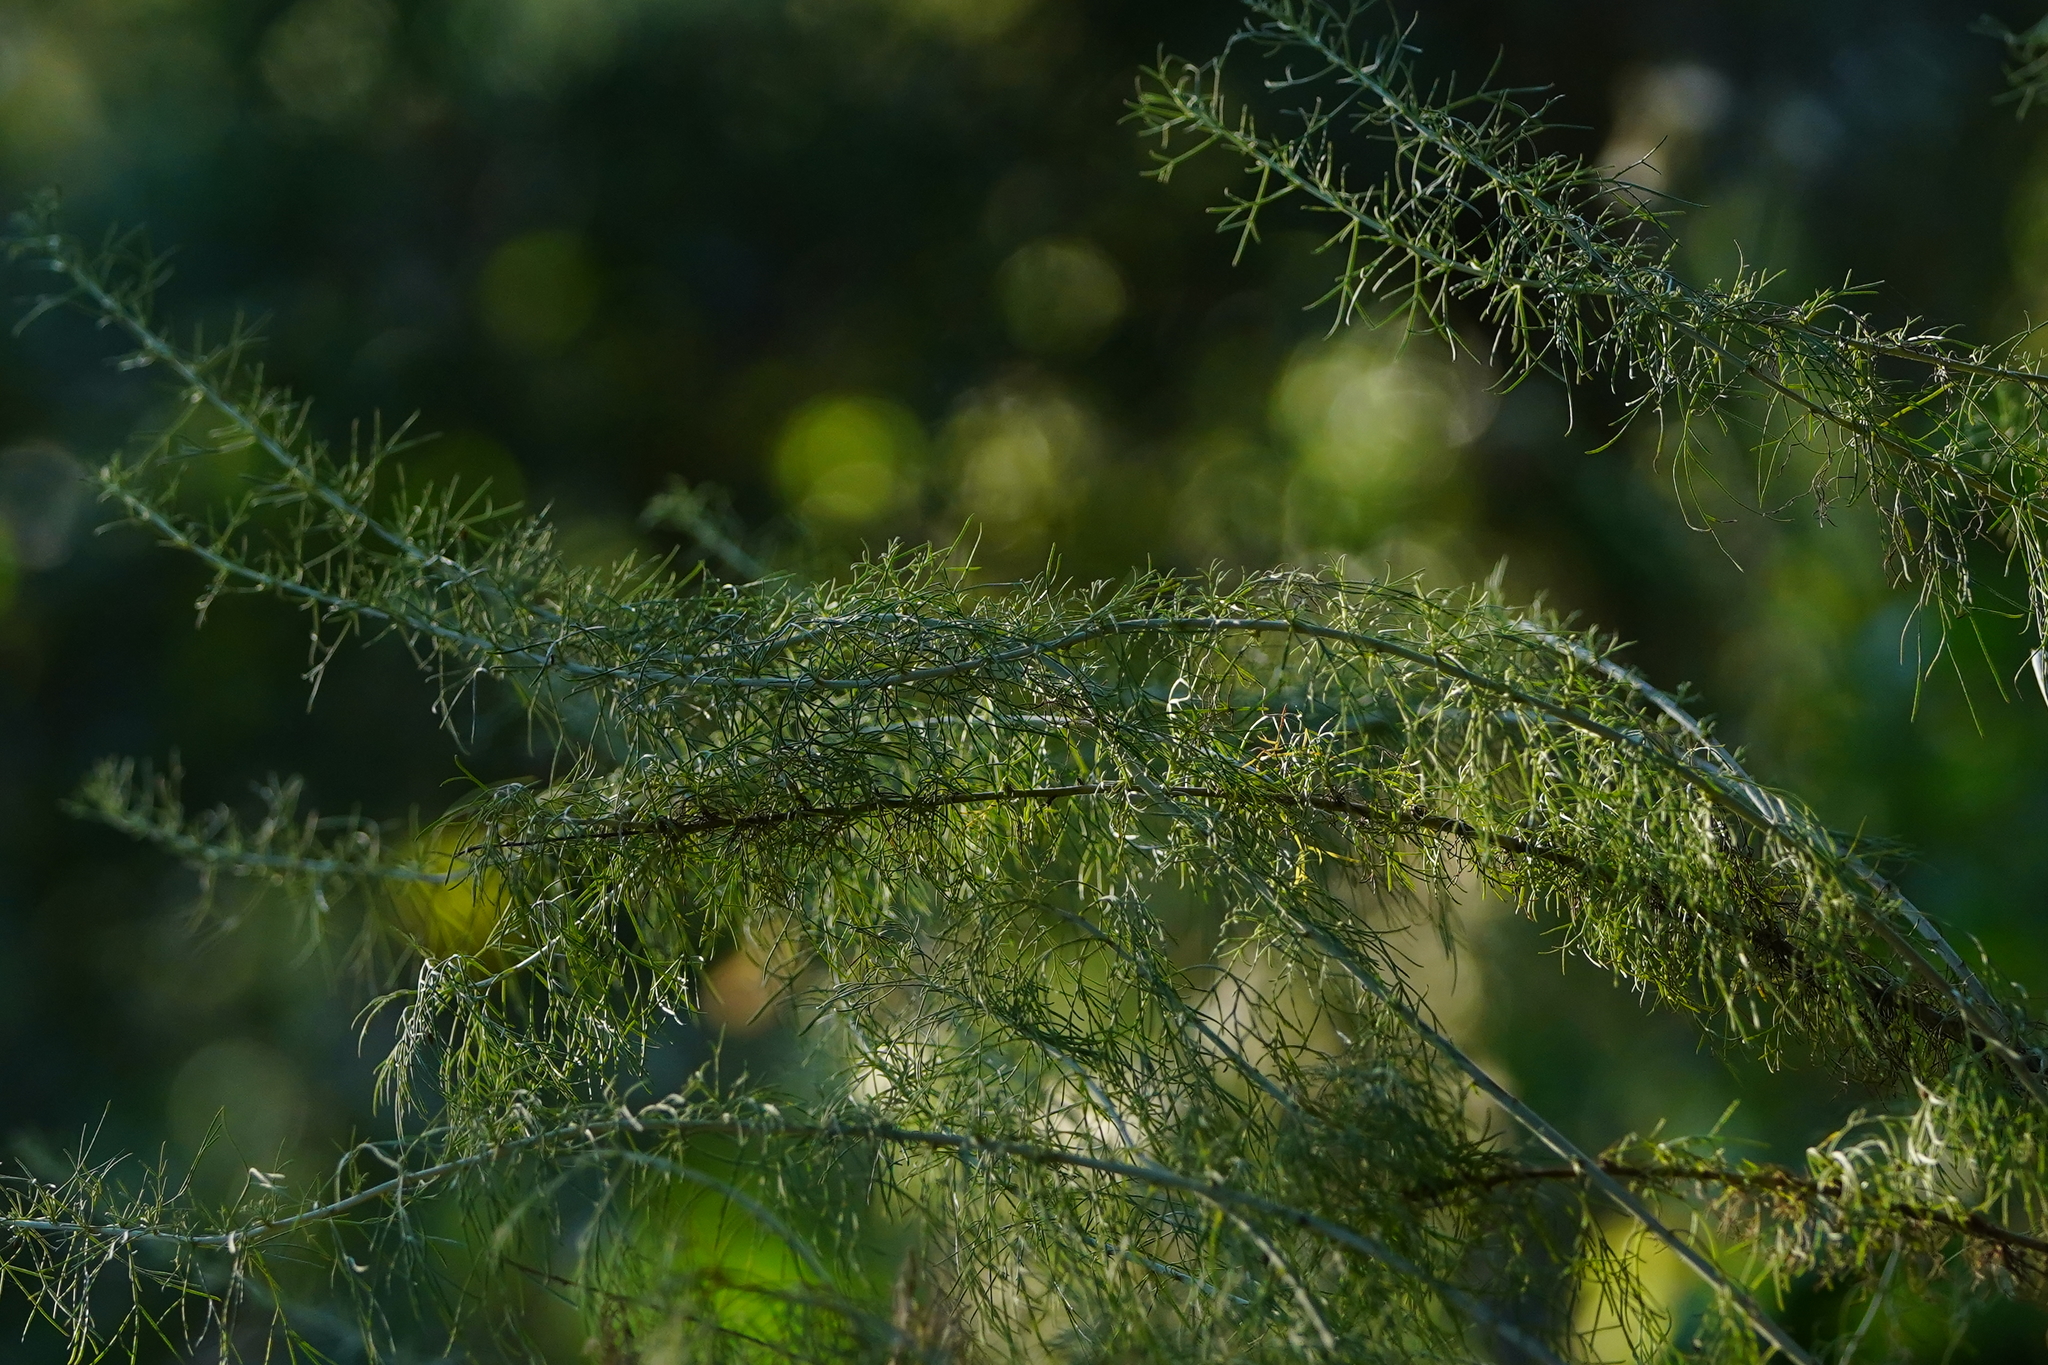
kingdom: Plantae
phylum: Tracheophyta
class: Magnoliopsida
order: Asterales
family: Asteraceae
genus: Artemisia
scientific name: Artemisia californica
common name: California sagebrush
